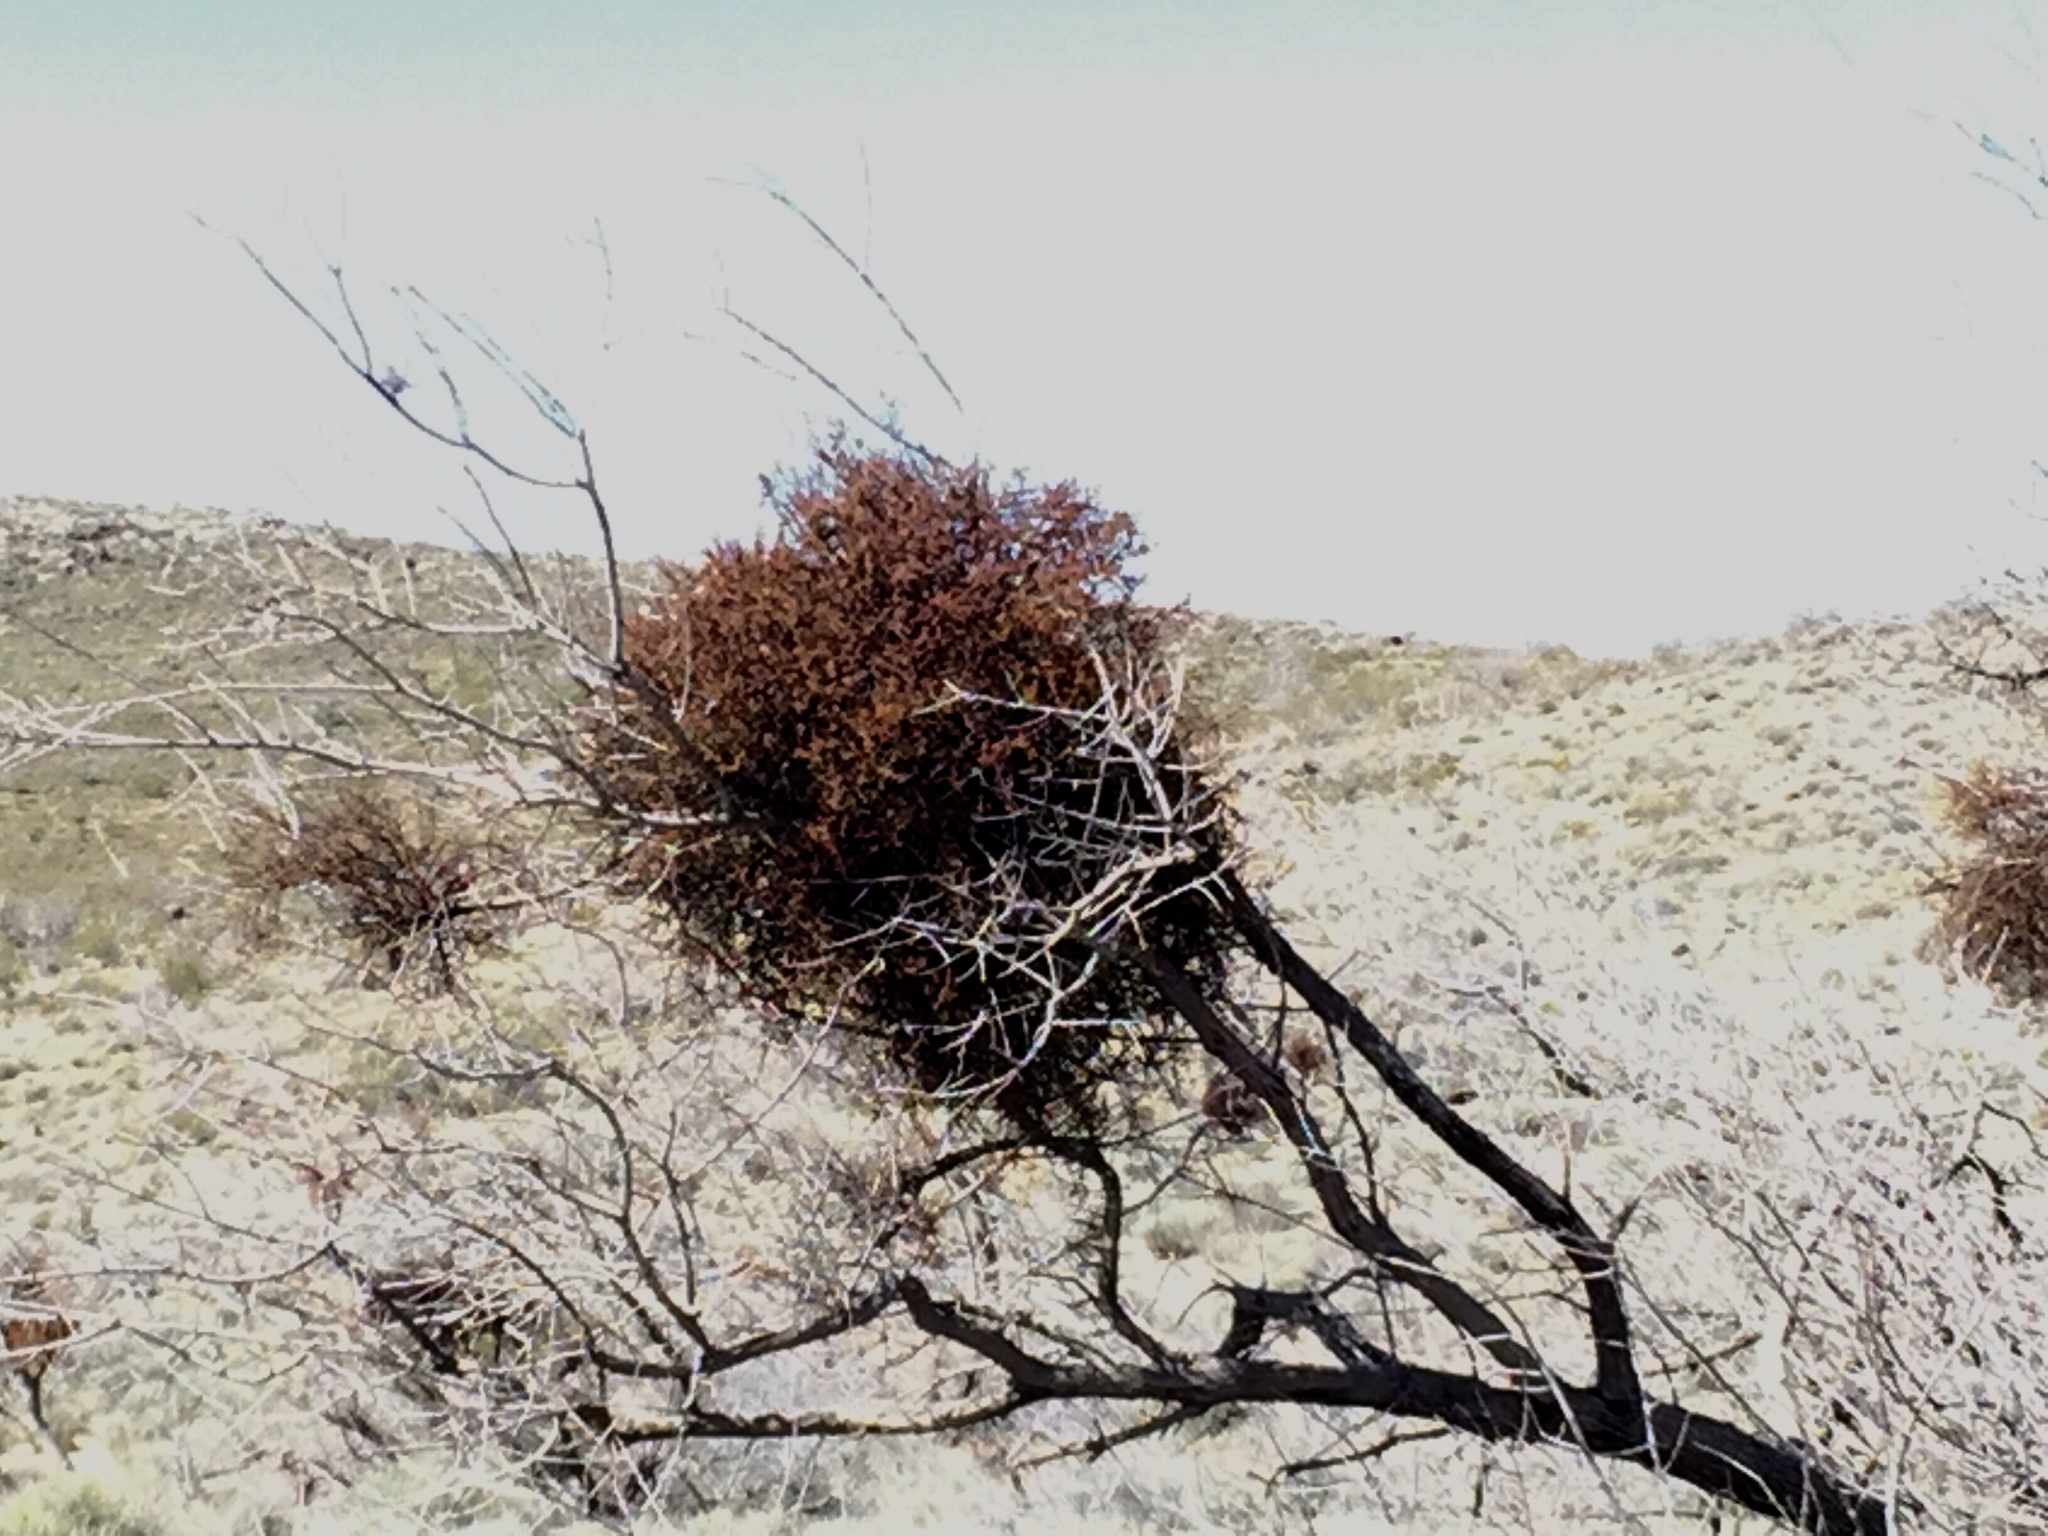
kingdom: Plantae
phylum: Tracheophyta
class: Magnoliopsida
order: Santalales
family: Viscaceae
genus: Phoradendron
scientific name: Phoradendron californicum
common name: Acacia mistletoe
